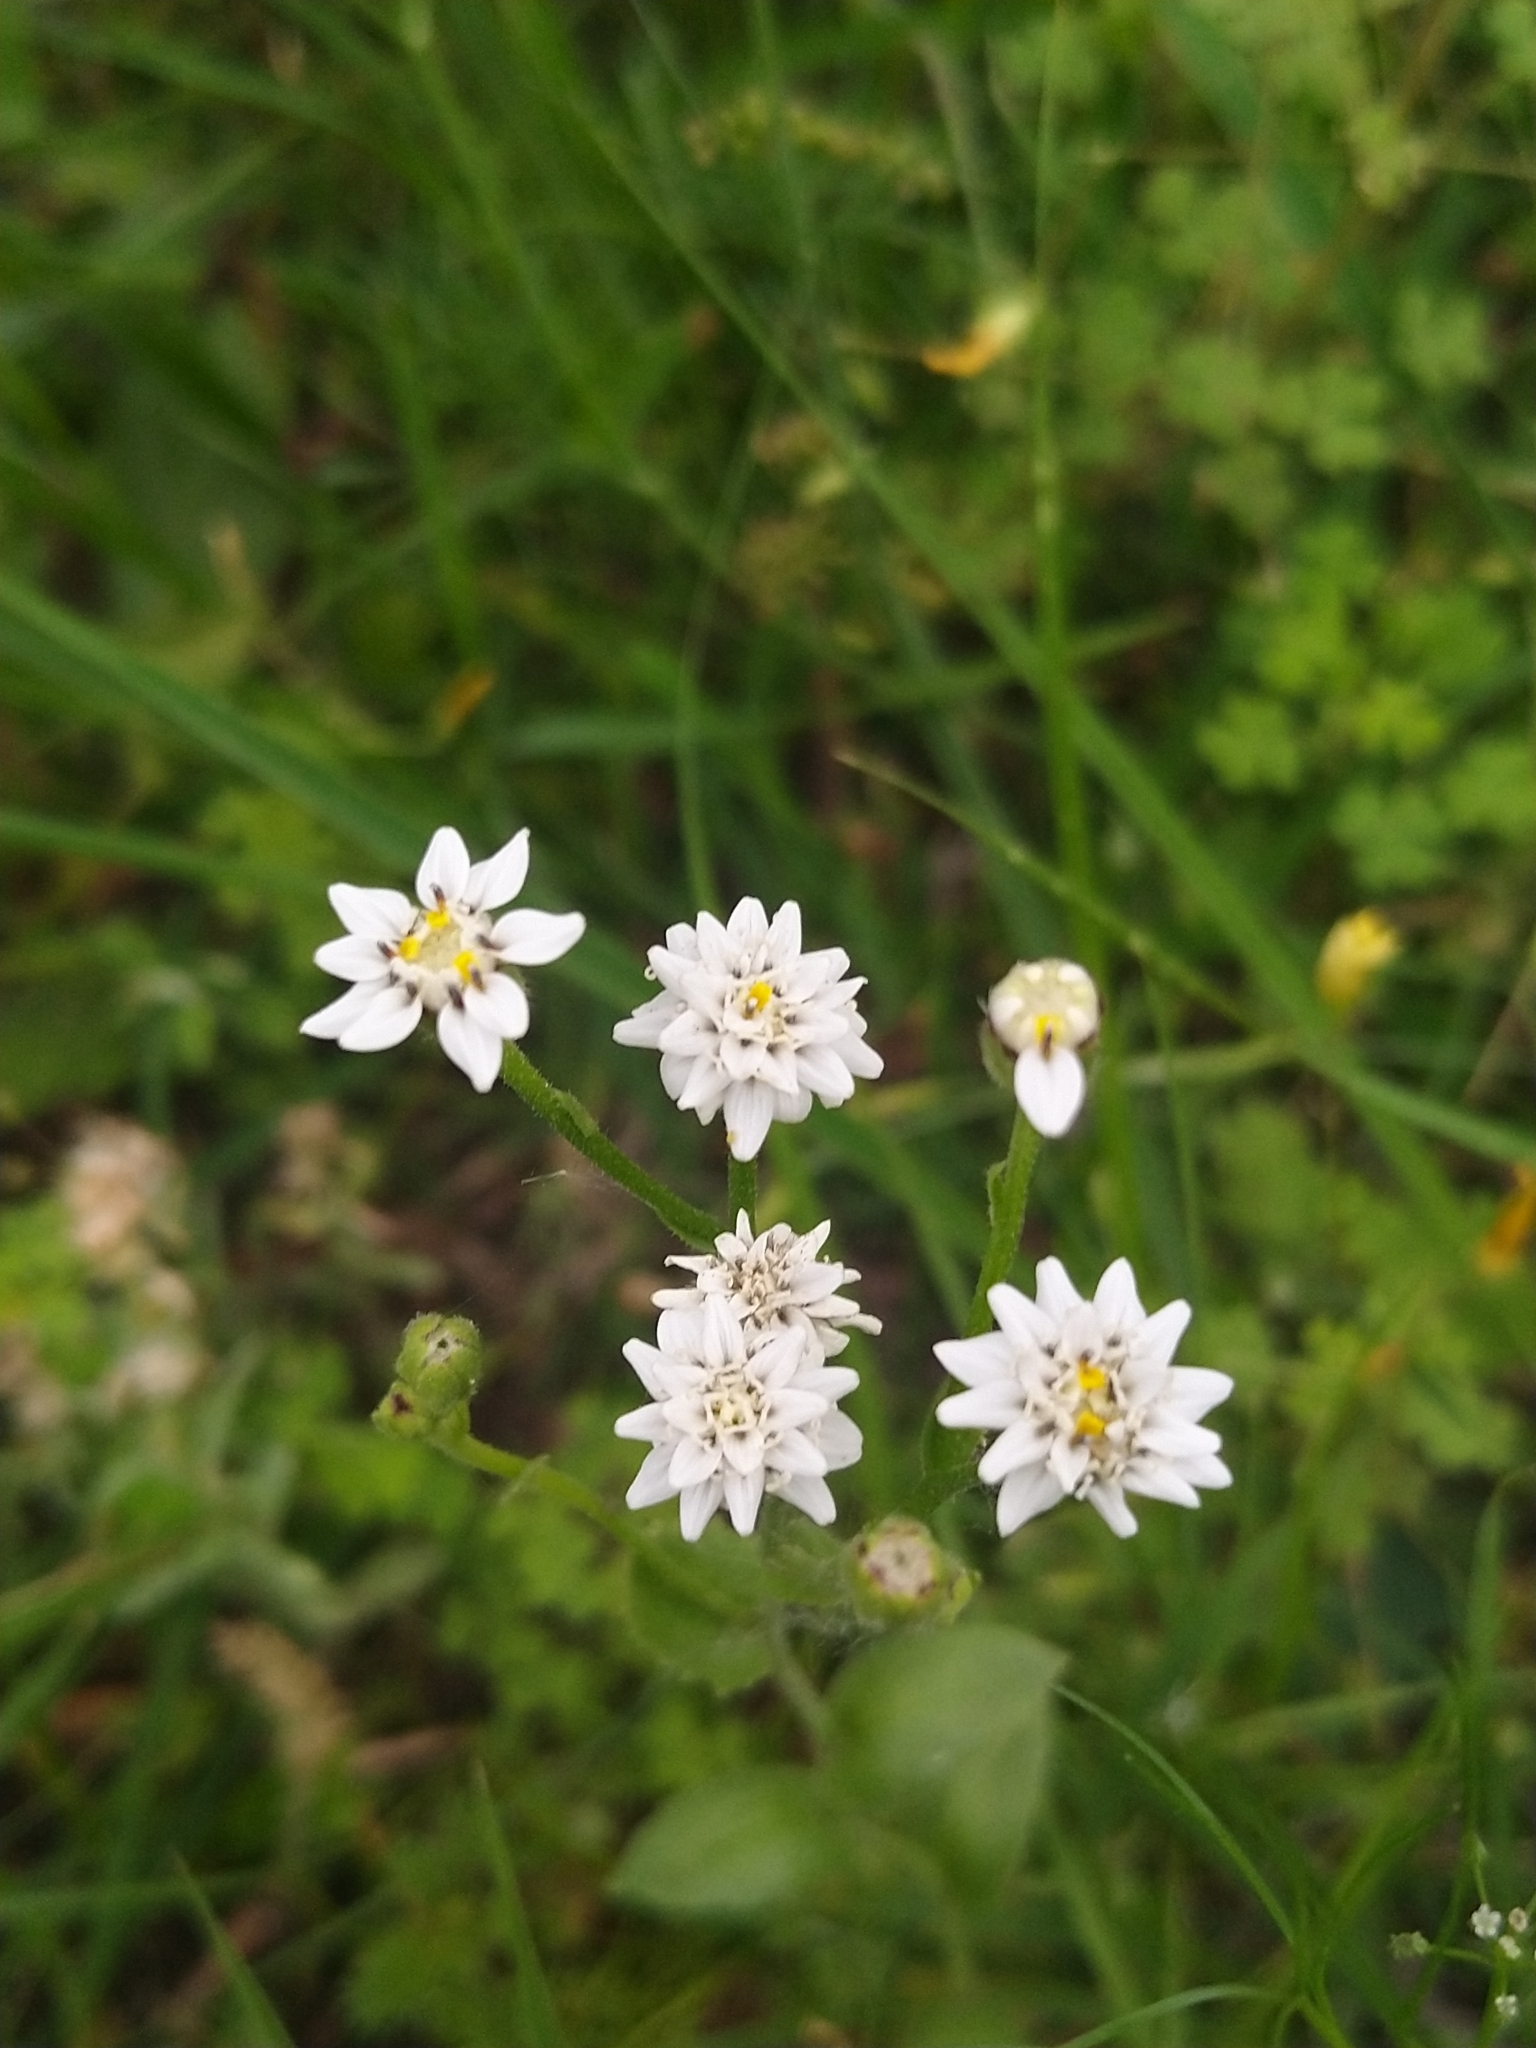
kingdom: Plantae
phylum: Tracheophyta
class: Magnoliopsida
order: Asterales
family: Asteraceae
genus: Holocheilus
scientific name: Holocheilus hieracioides
